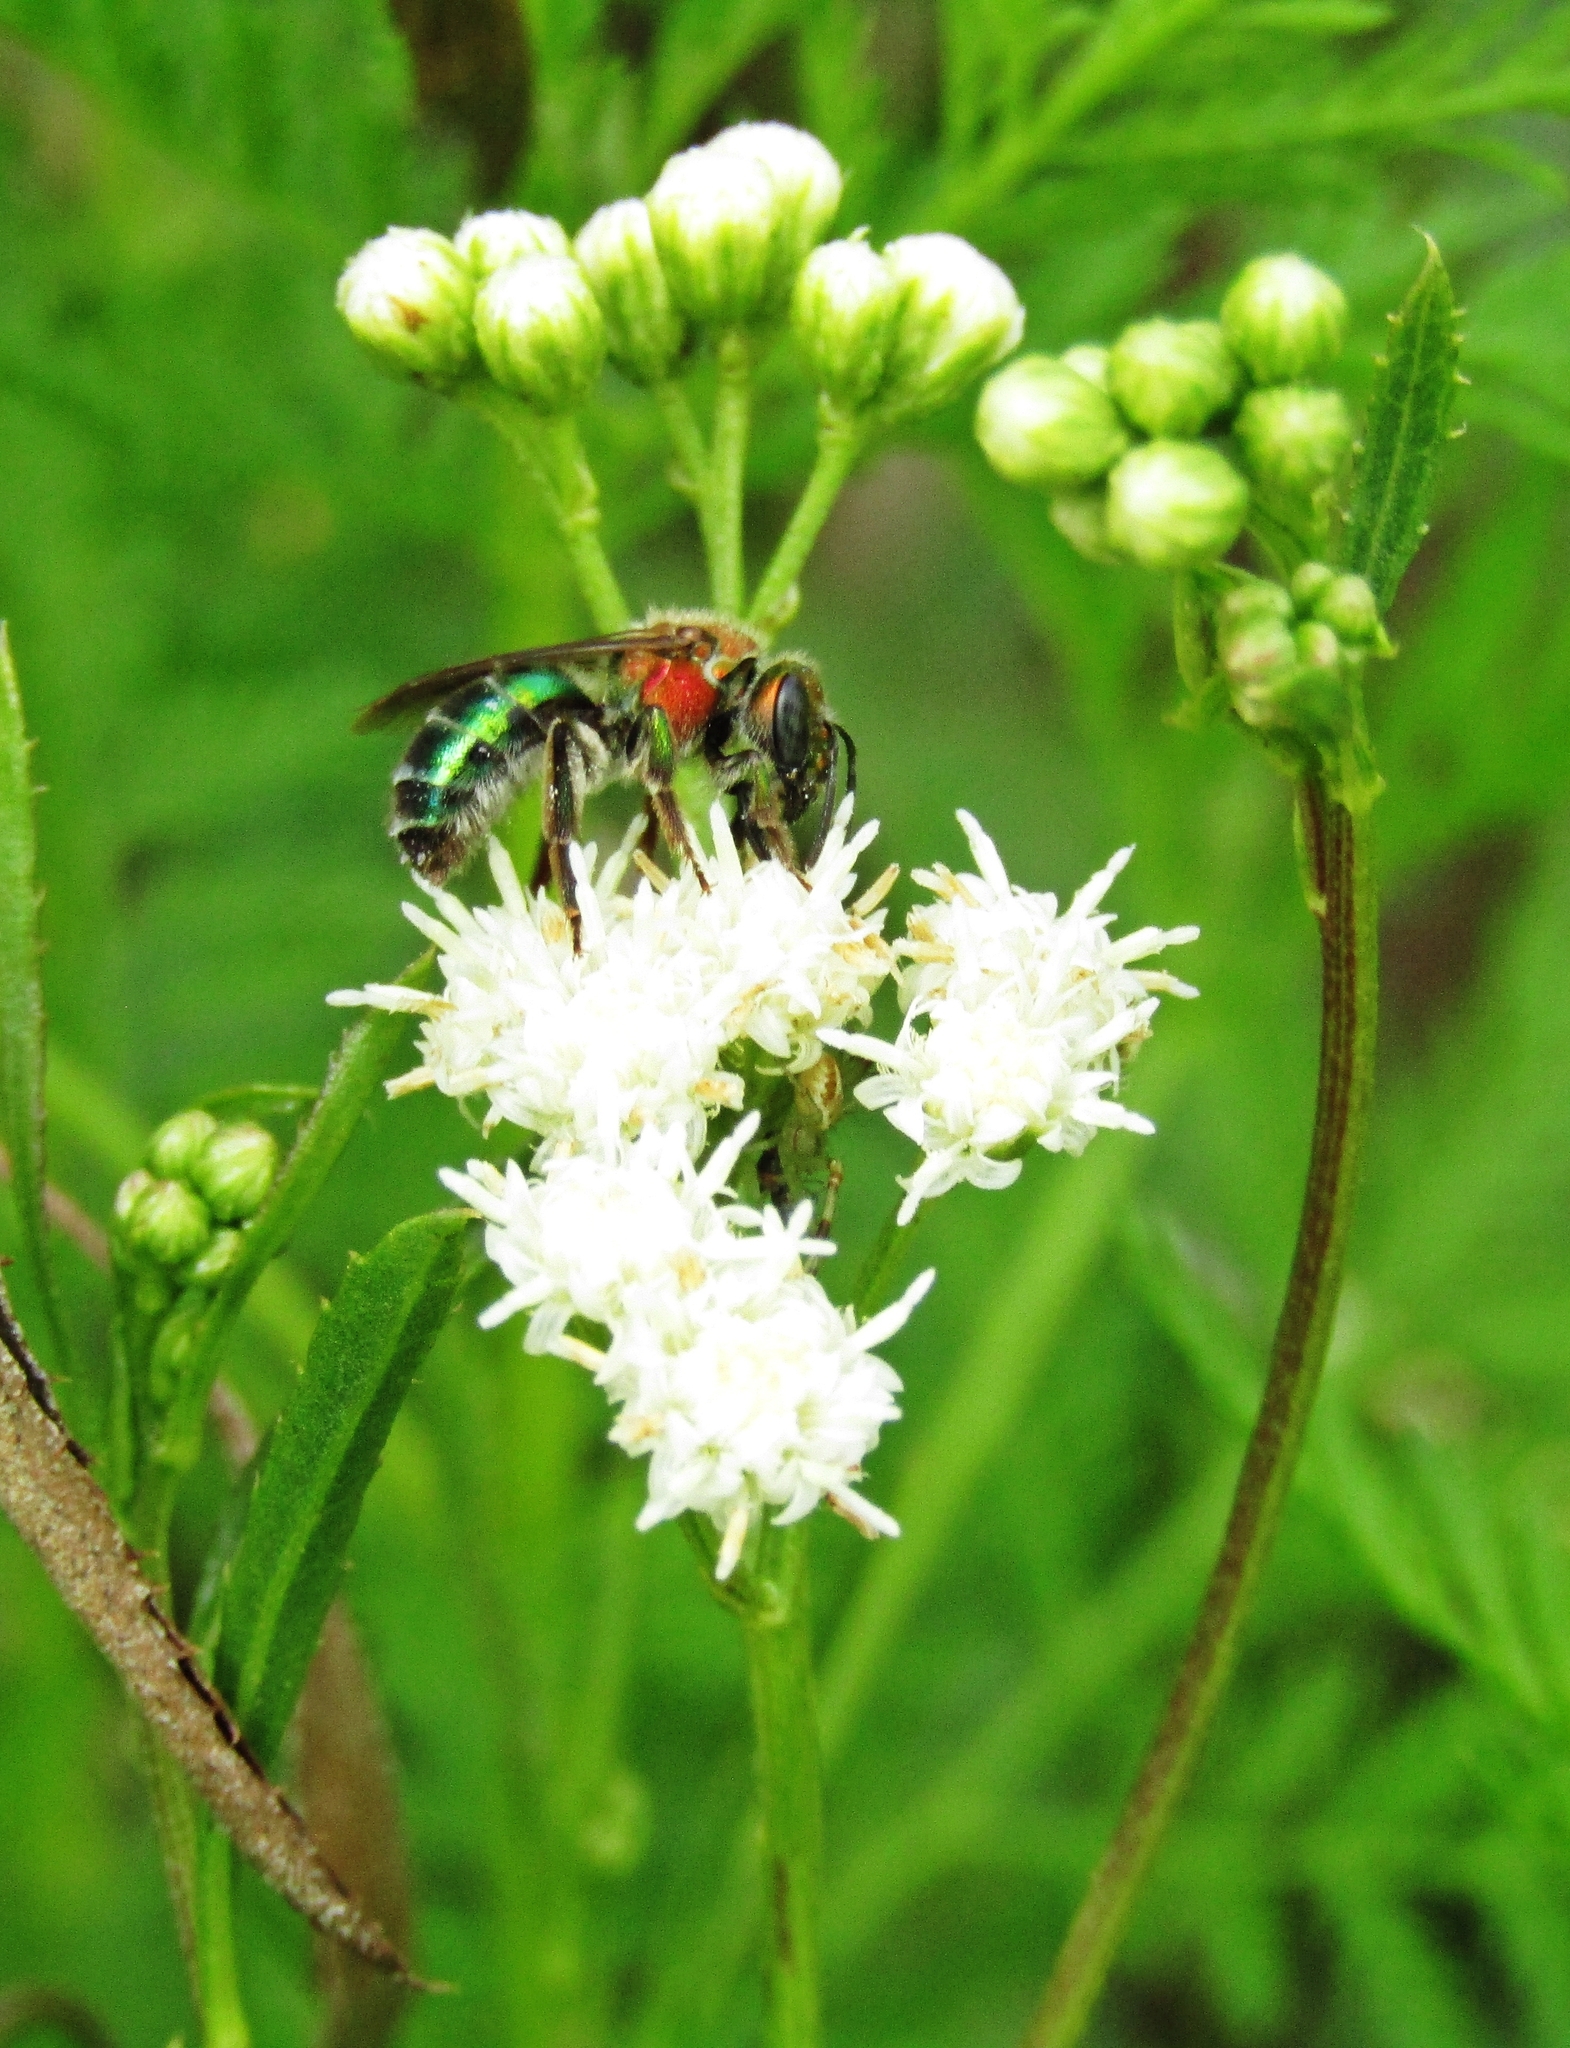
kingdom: Animalia
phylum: Arthropoda
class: Insecta
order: Hymenoptera
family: Halictidae
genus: Augochloropsis
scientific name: Augochloropsis tupacamaru
